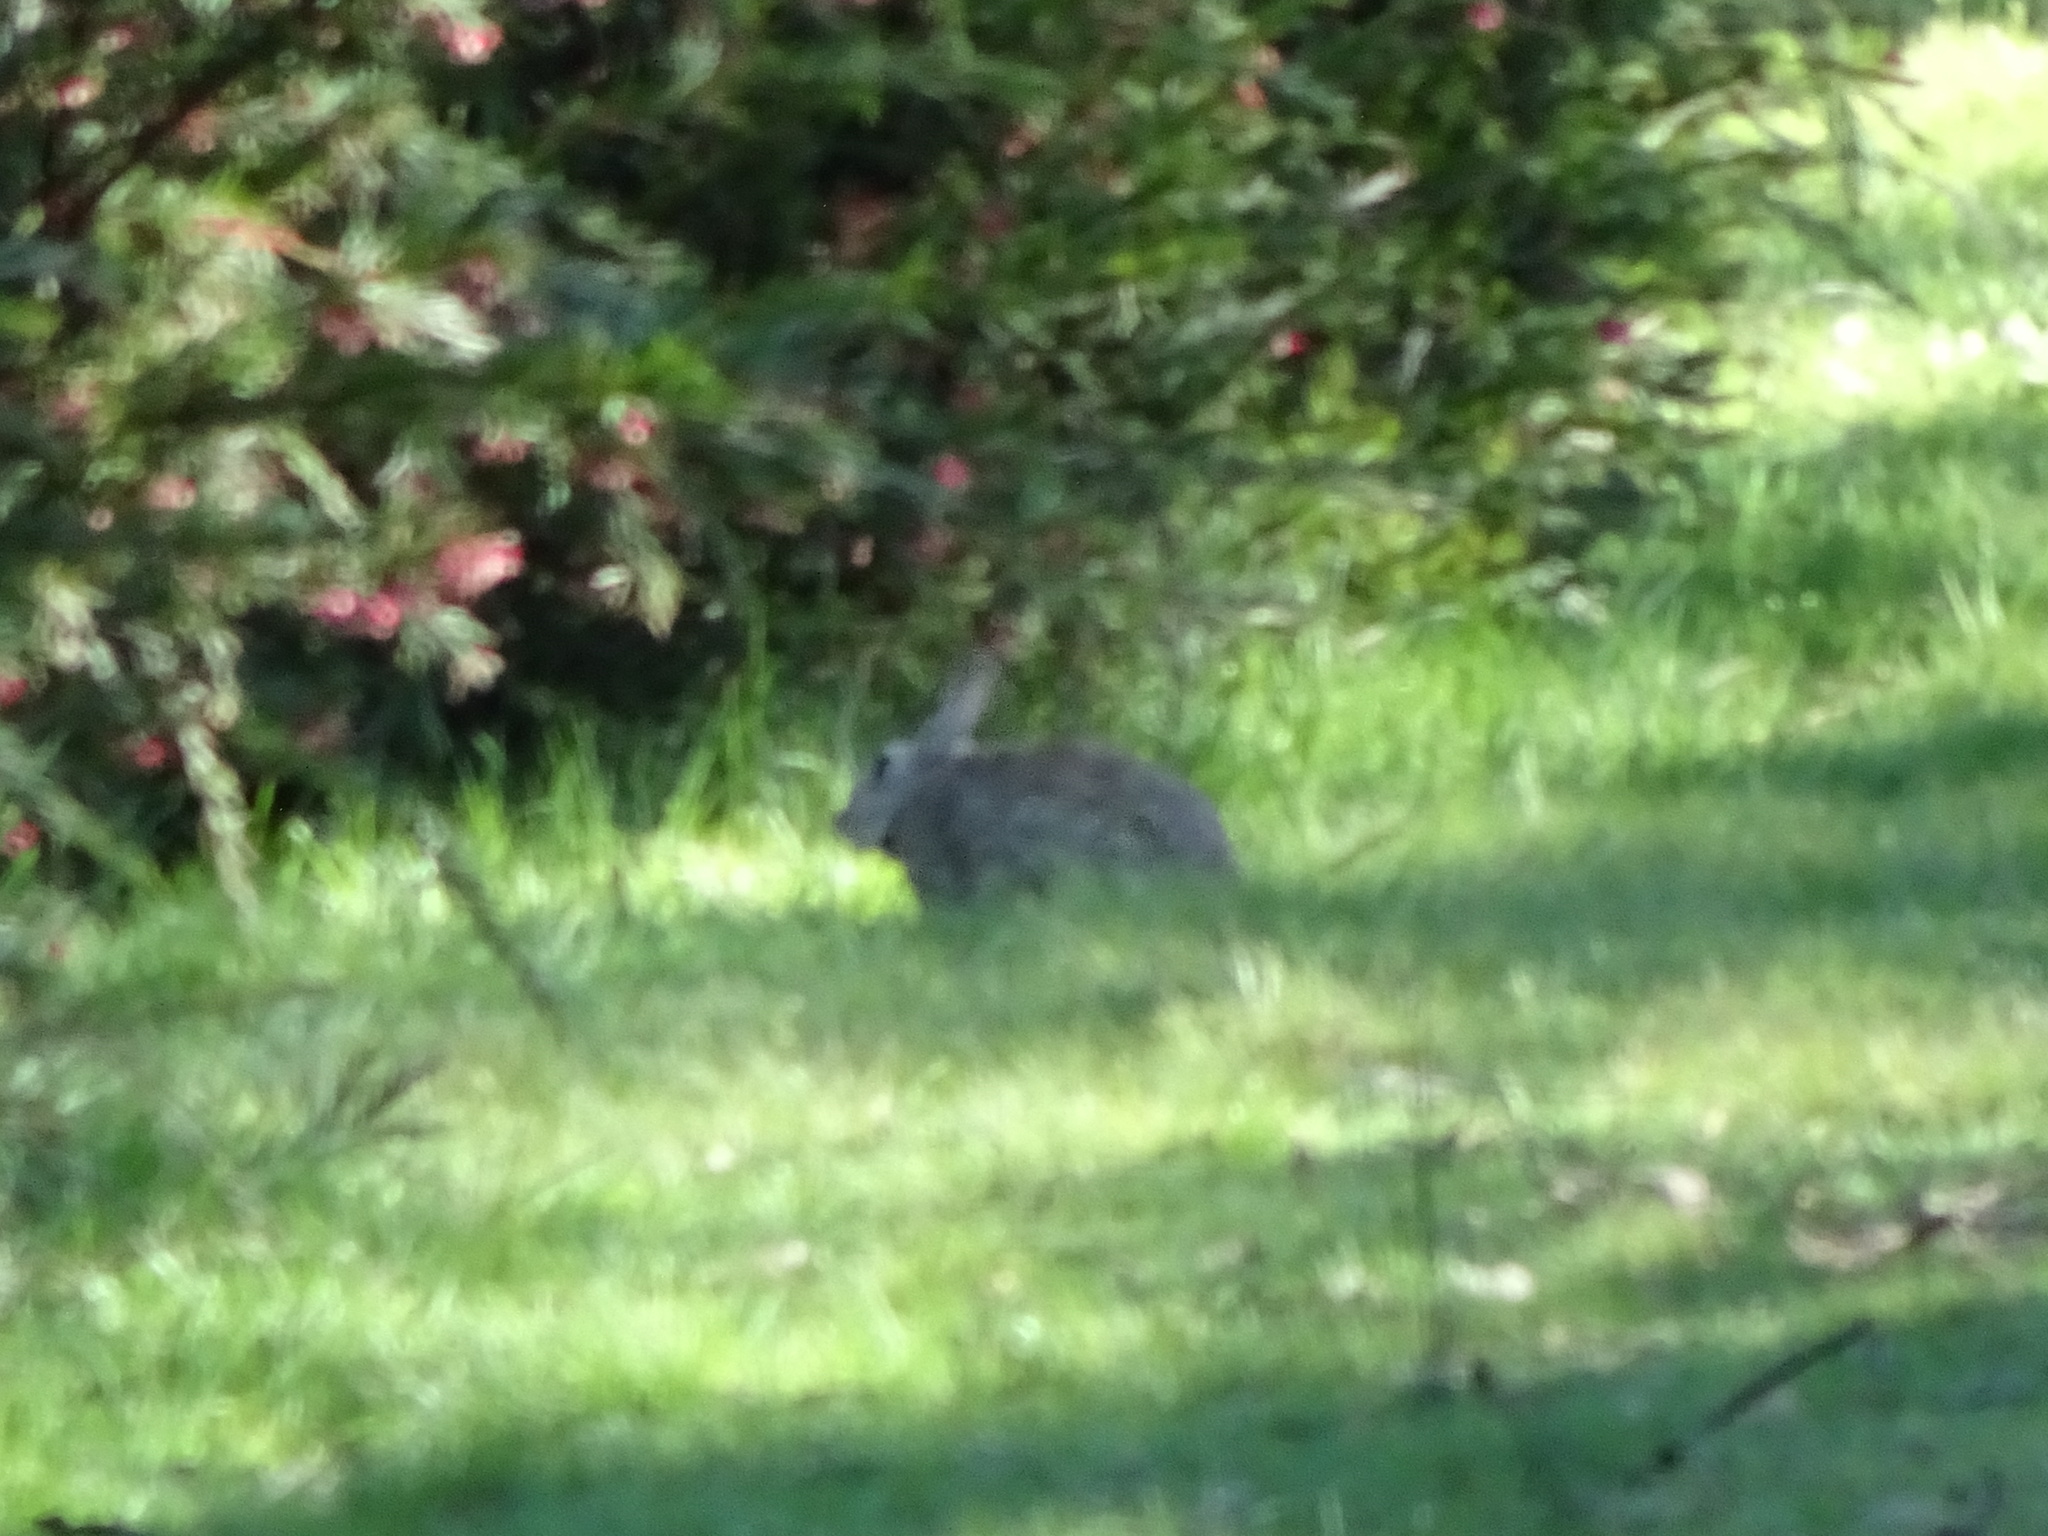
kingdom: Animalia
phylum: Chordata
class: Mammalia
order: Lagomorpha
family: Leporidae
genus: Oryctolagus
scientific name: Oryctolagus cuniculus
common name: European rabbit
